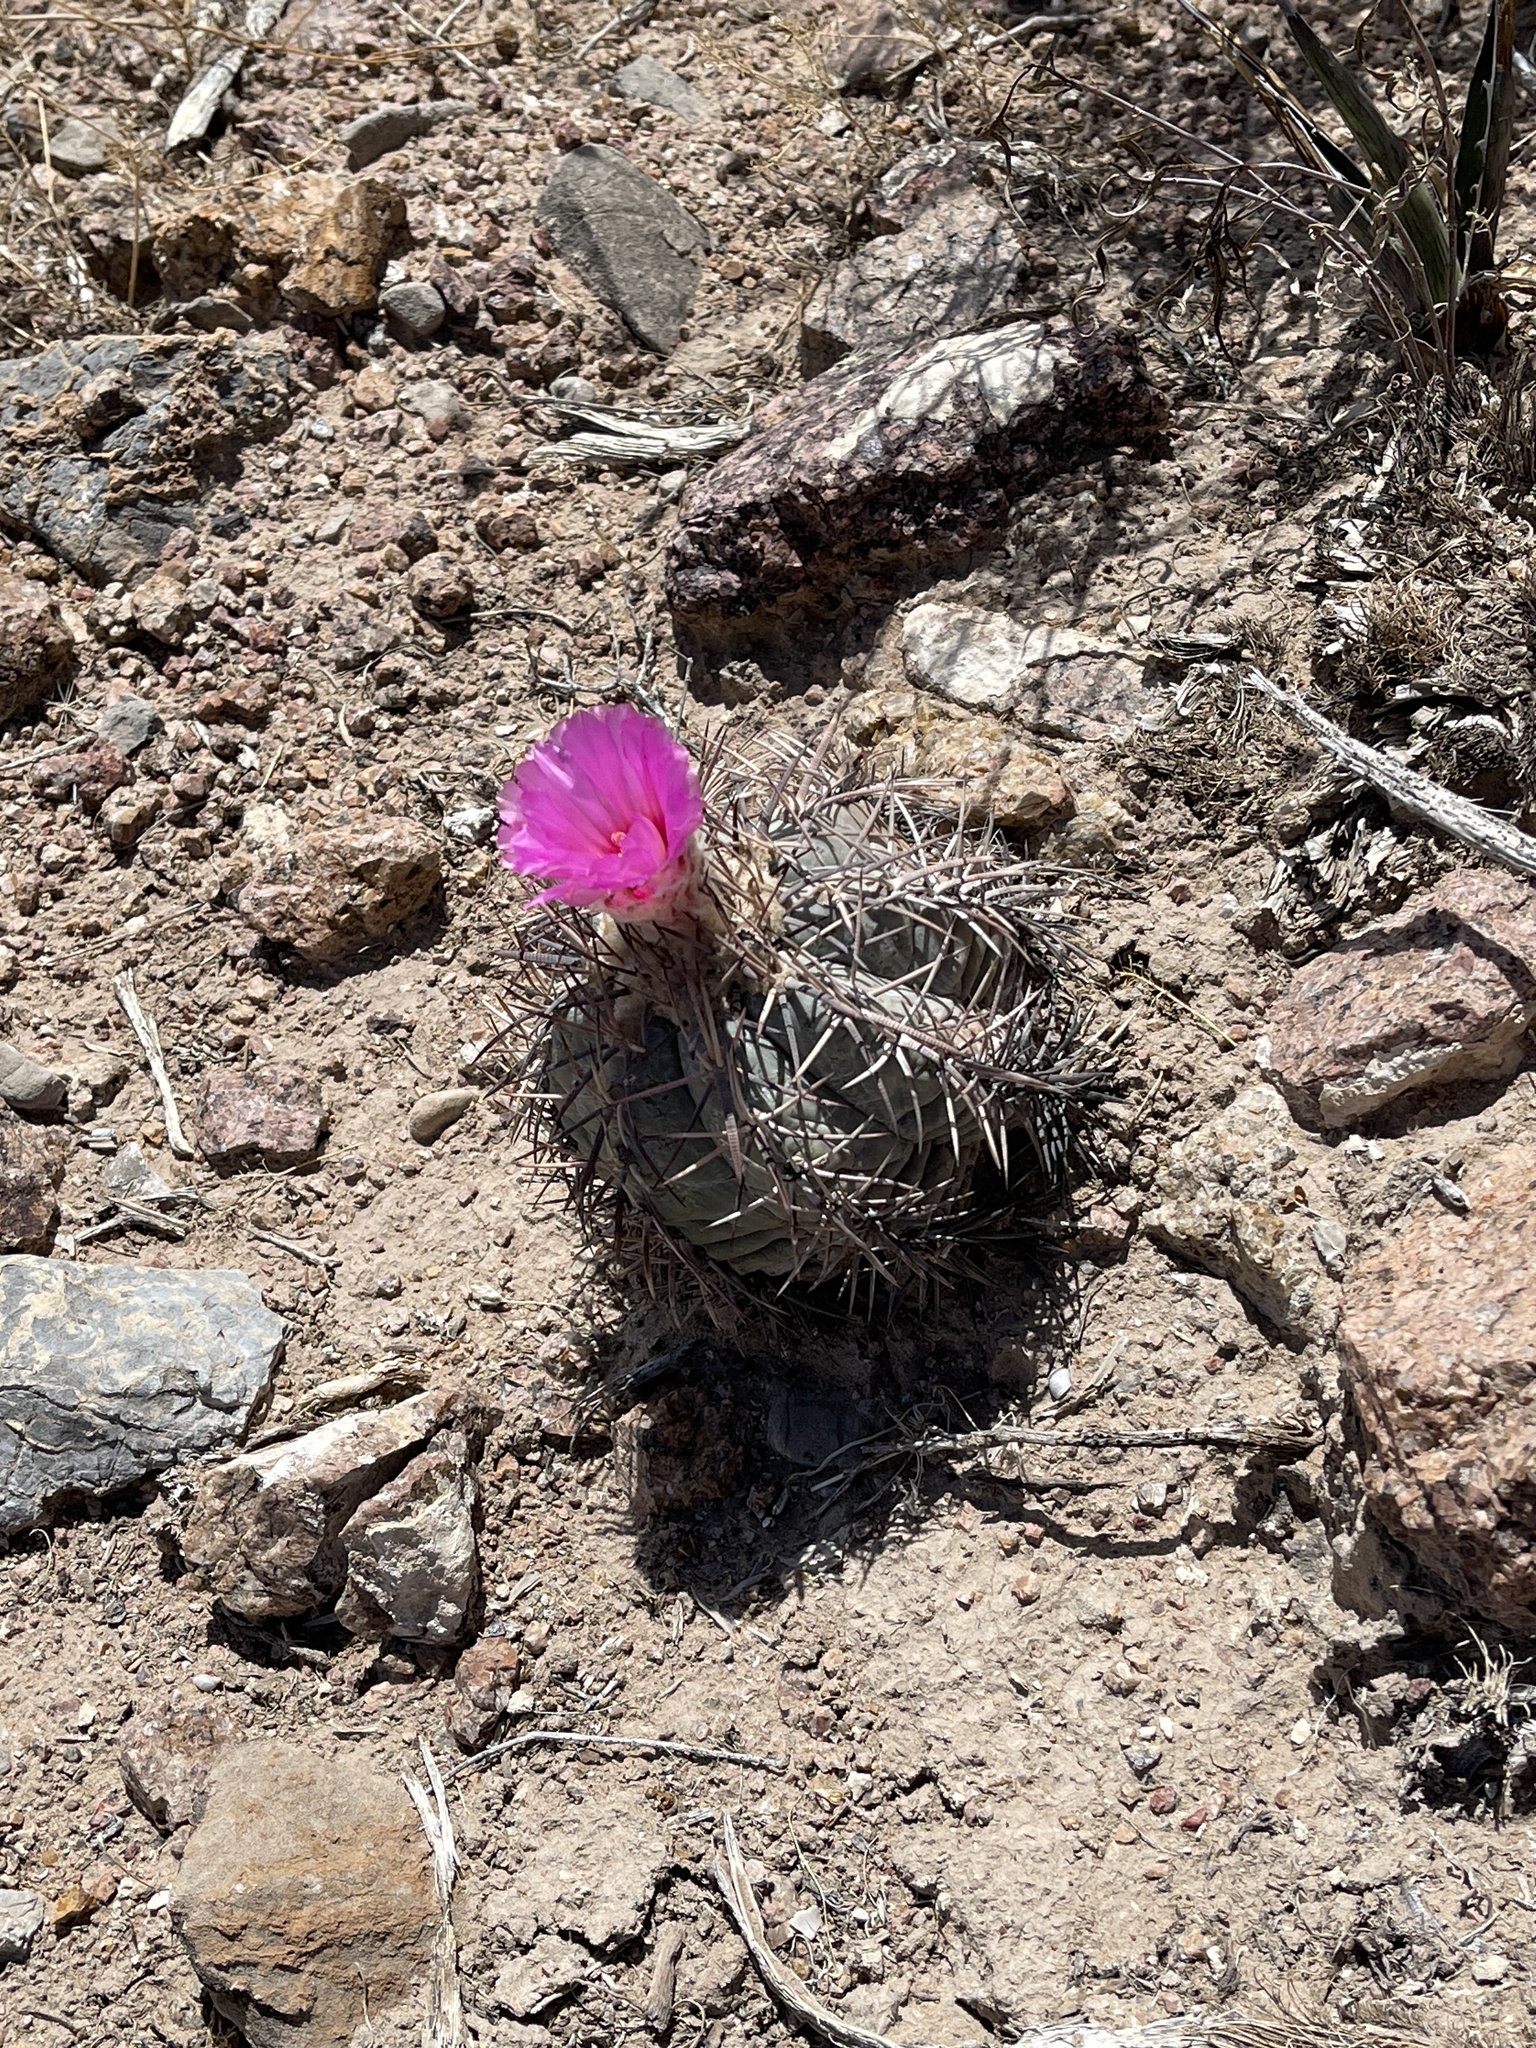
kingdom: Plantae
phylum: Tracheophyta
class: Magnoliopsida
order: Caryophyllales
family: Cactaceae
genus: Echinocactus
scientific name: Echinocactus horizonthalonius
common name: Devilshead
